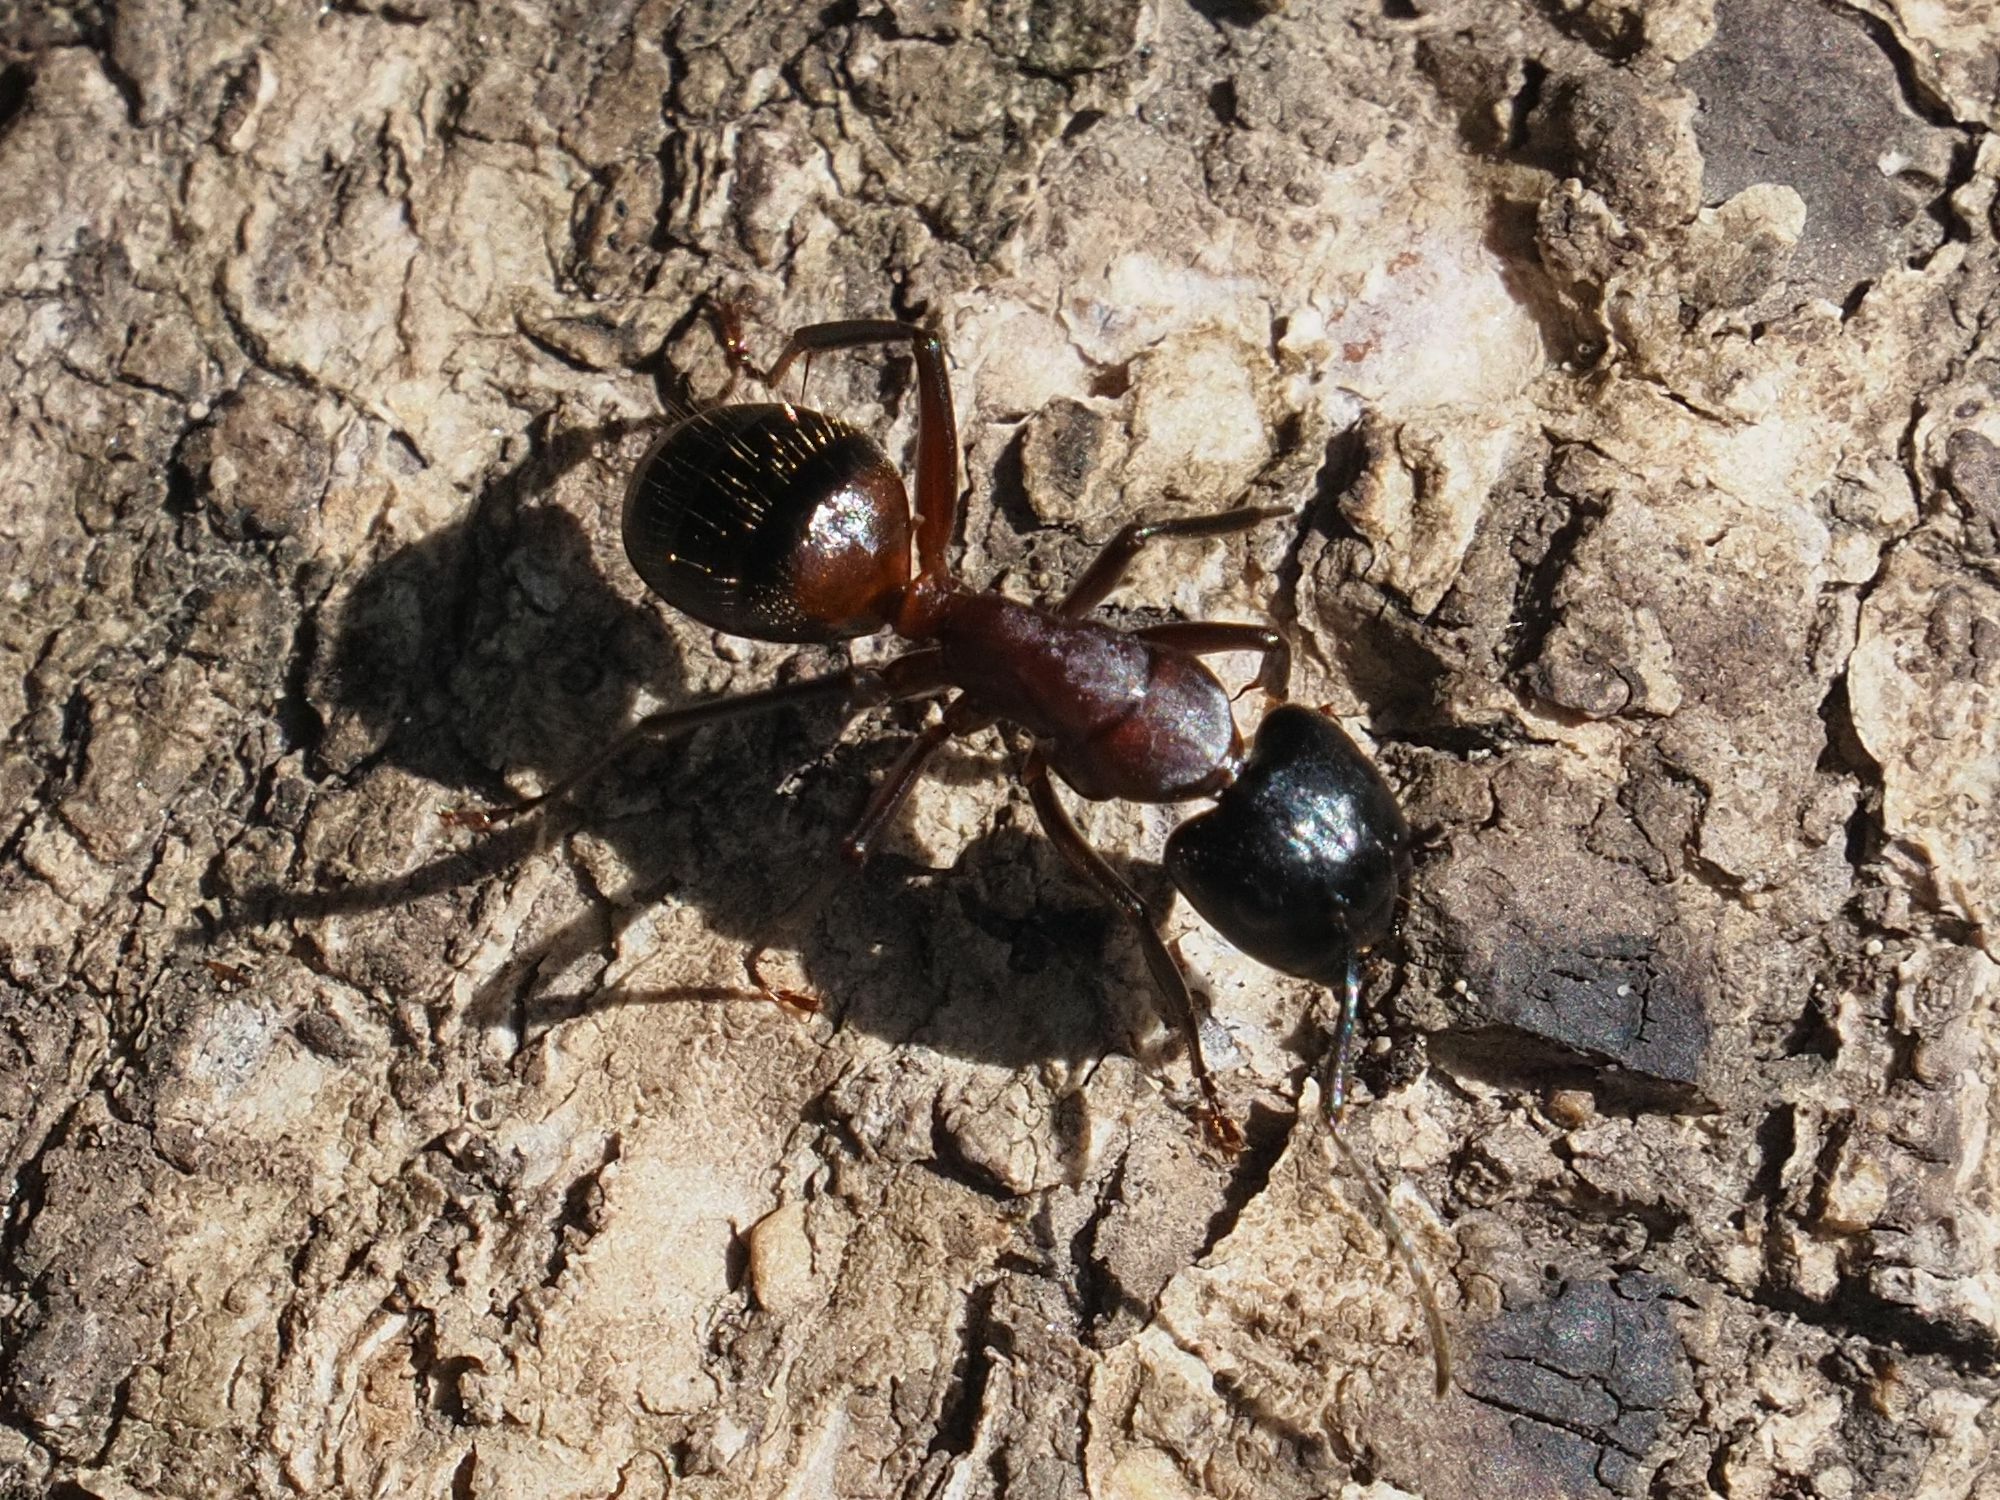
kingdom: Animalia
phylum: Arthropoda
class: Insecta
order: Hymenoptera
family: Formicidae
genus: Camponotus
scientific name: Camponotus ligniperdus
